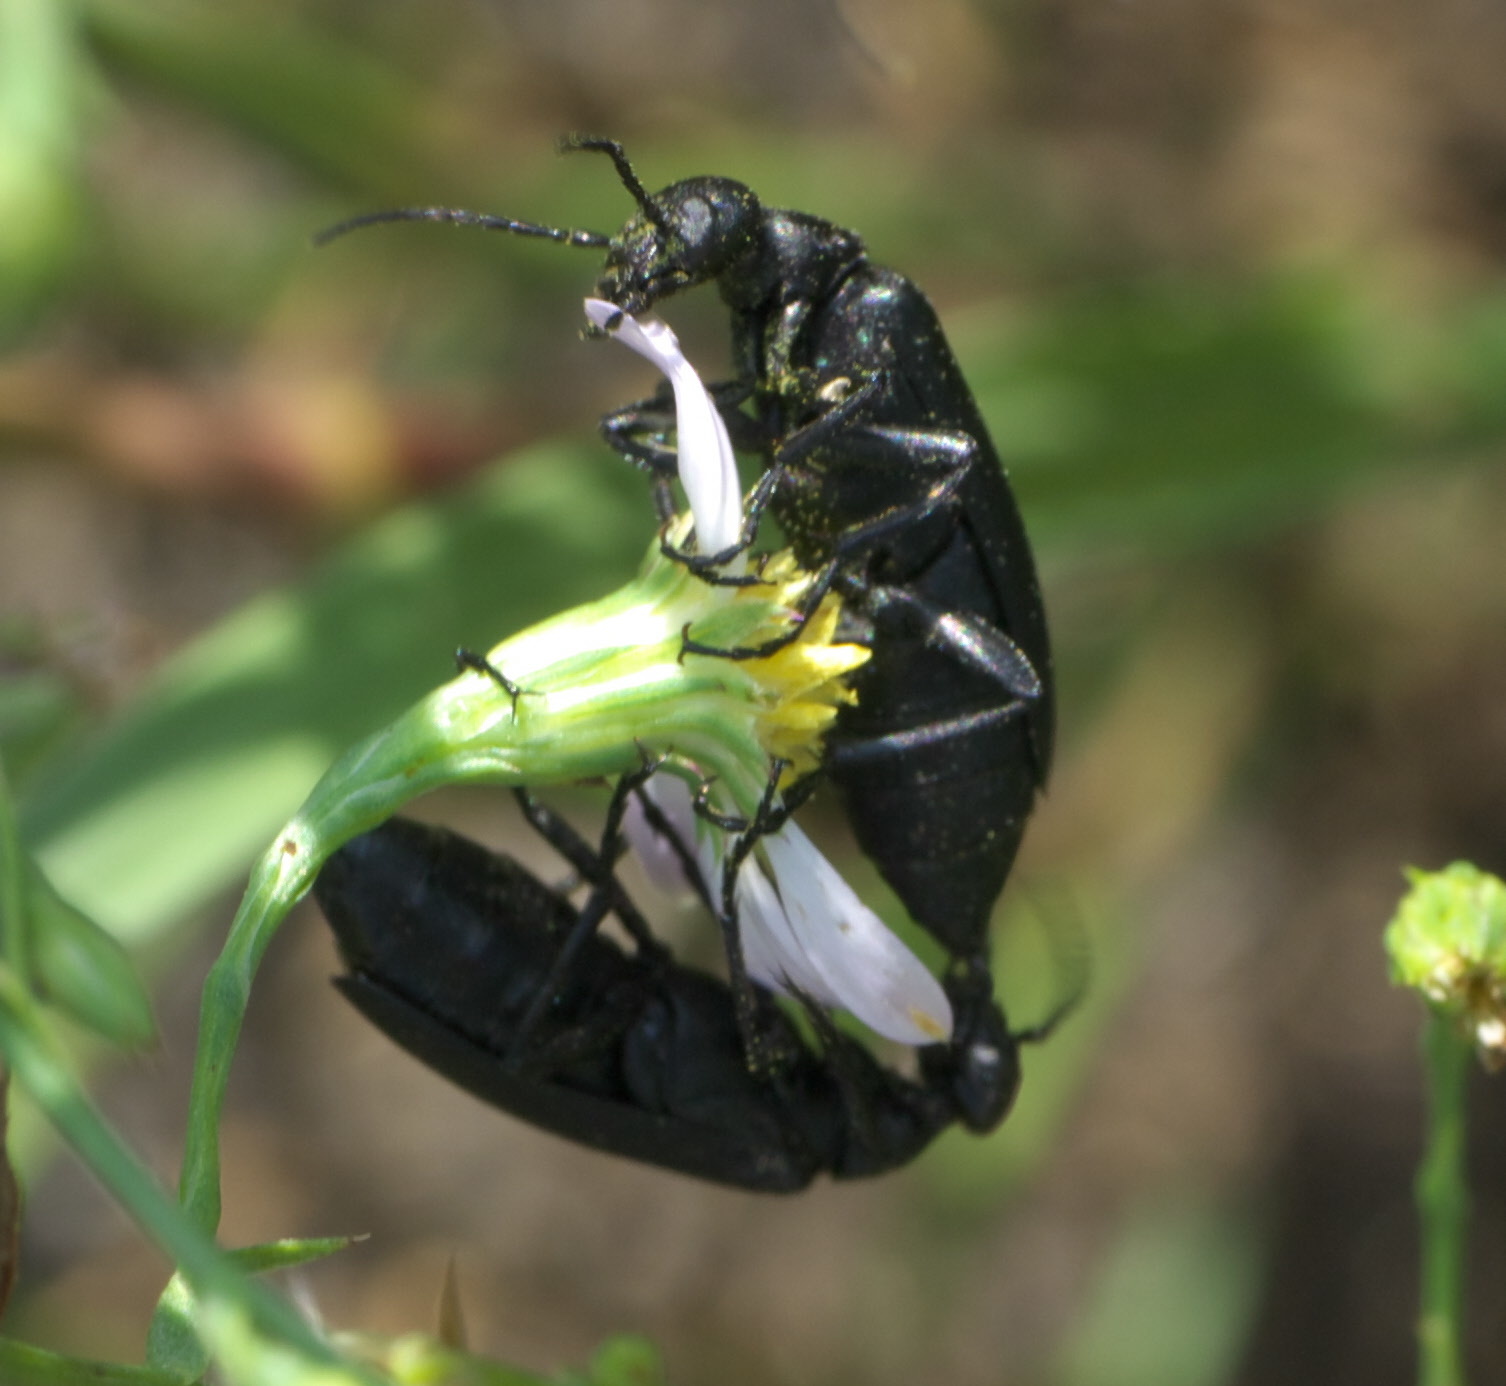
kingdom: Animalia
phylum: Arthropoda
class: Insecta
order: Coleoptera
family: Meloidae
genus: Epicauta
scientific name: Epicauta pensylvanica
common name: Black blister beetle
